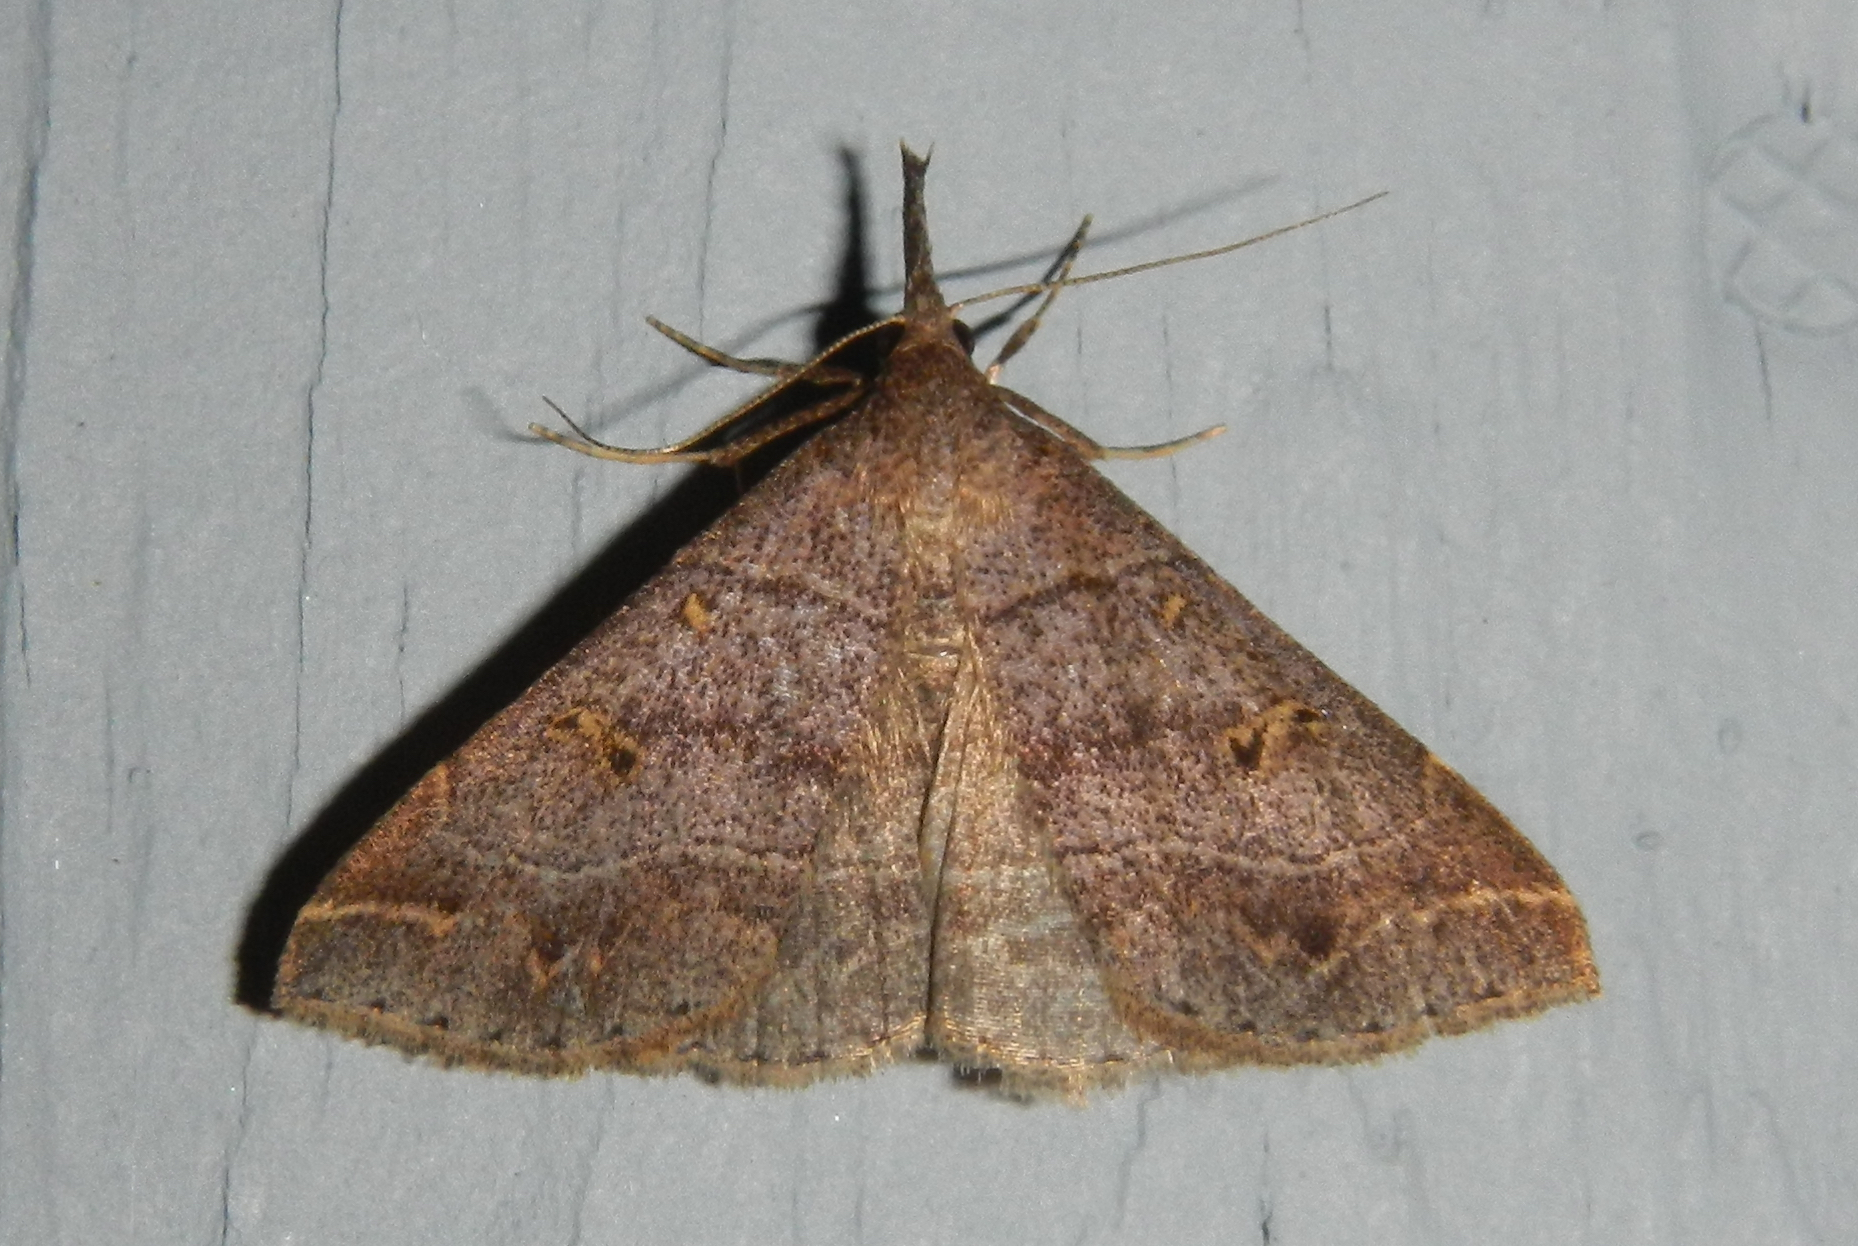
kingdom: Animalia
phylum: Arthropoda
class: Insecta
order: Lepidoptera
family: Erebidae
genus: Renia
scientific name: Renia flavipunctalis
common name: Yellow-spotted renia moth
